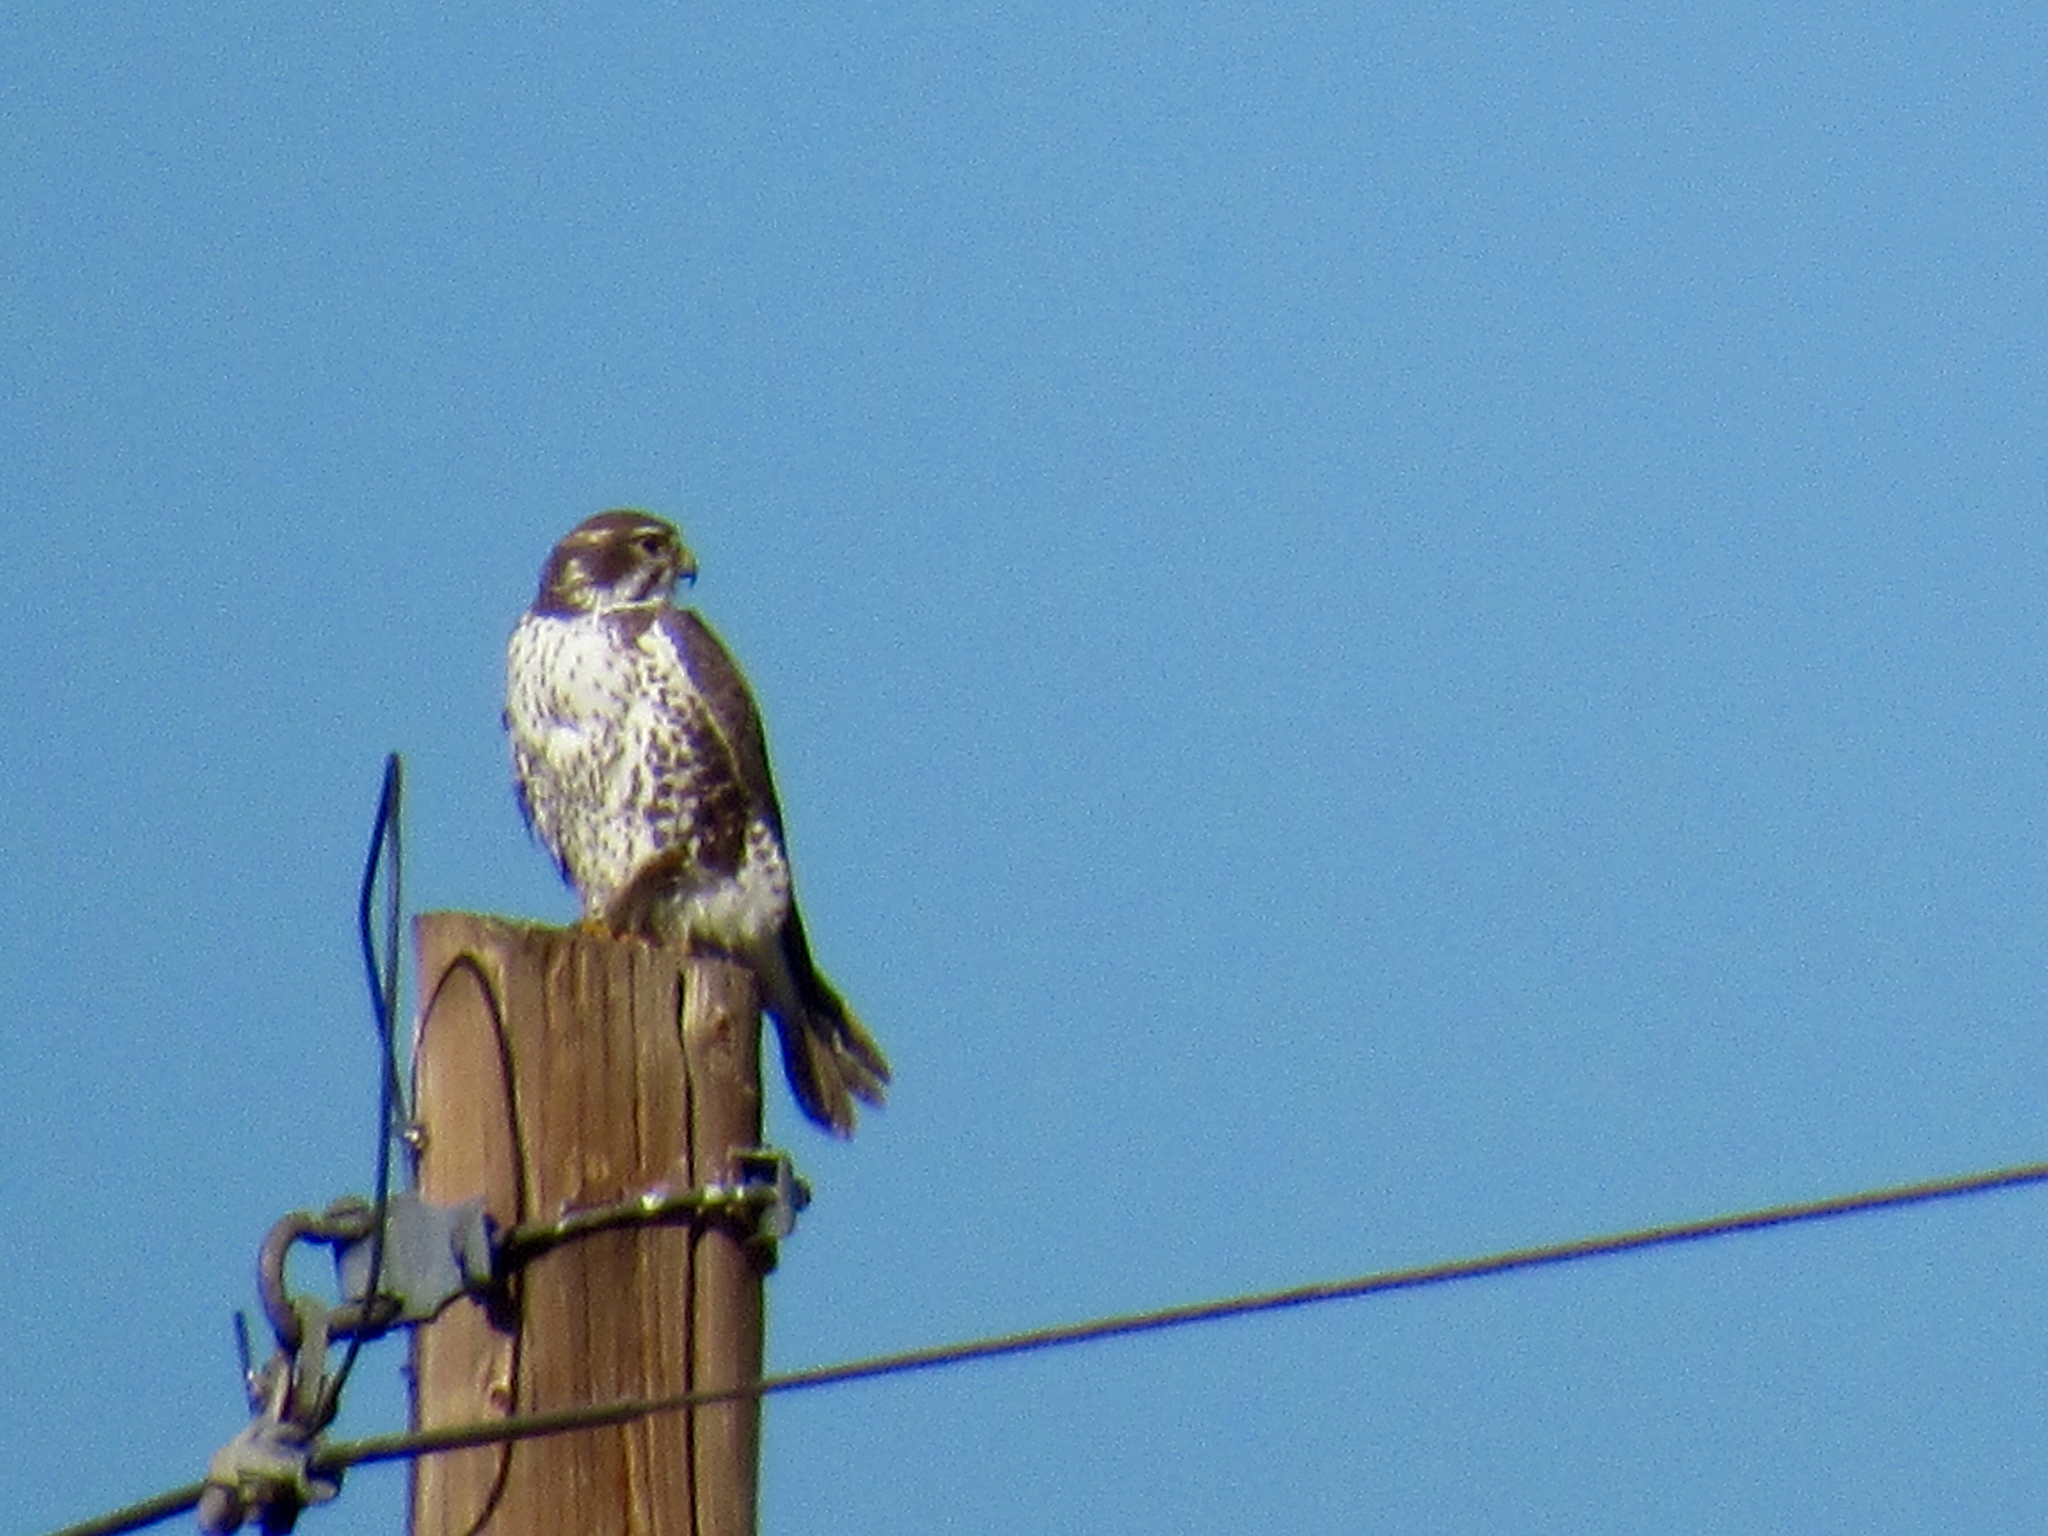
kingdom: Animalia
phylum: Chordata
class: Aves
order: Falconiformes
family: Falconidae
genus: Falco
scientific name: Falco mexicanus
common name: Prairie falcon
